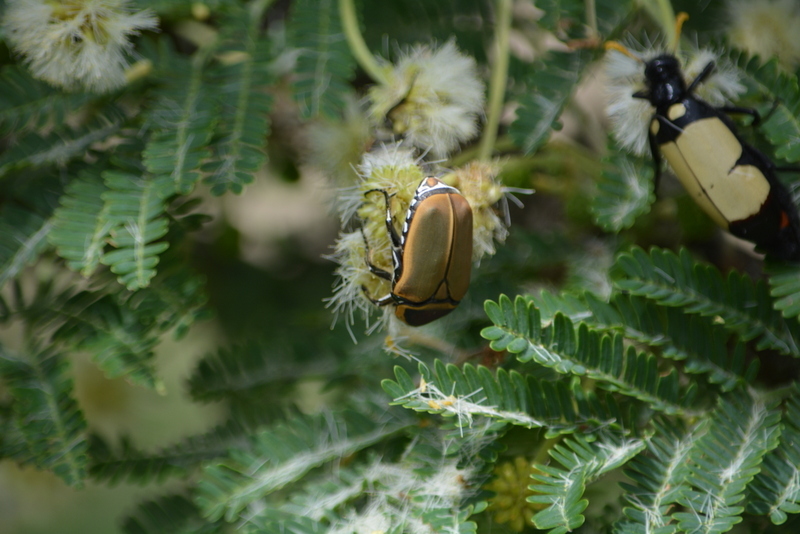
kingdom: Animalia
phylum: Arthropoda
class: Insecta
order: Coleoptera
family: Scarabaeidae
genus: Dischista
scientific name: Dischista cincta
